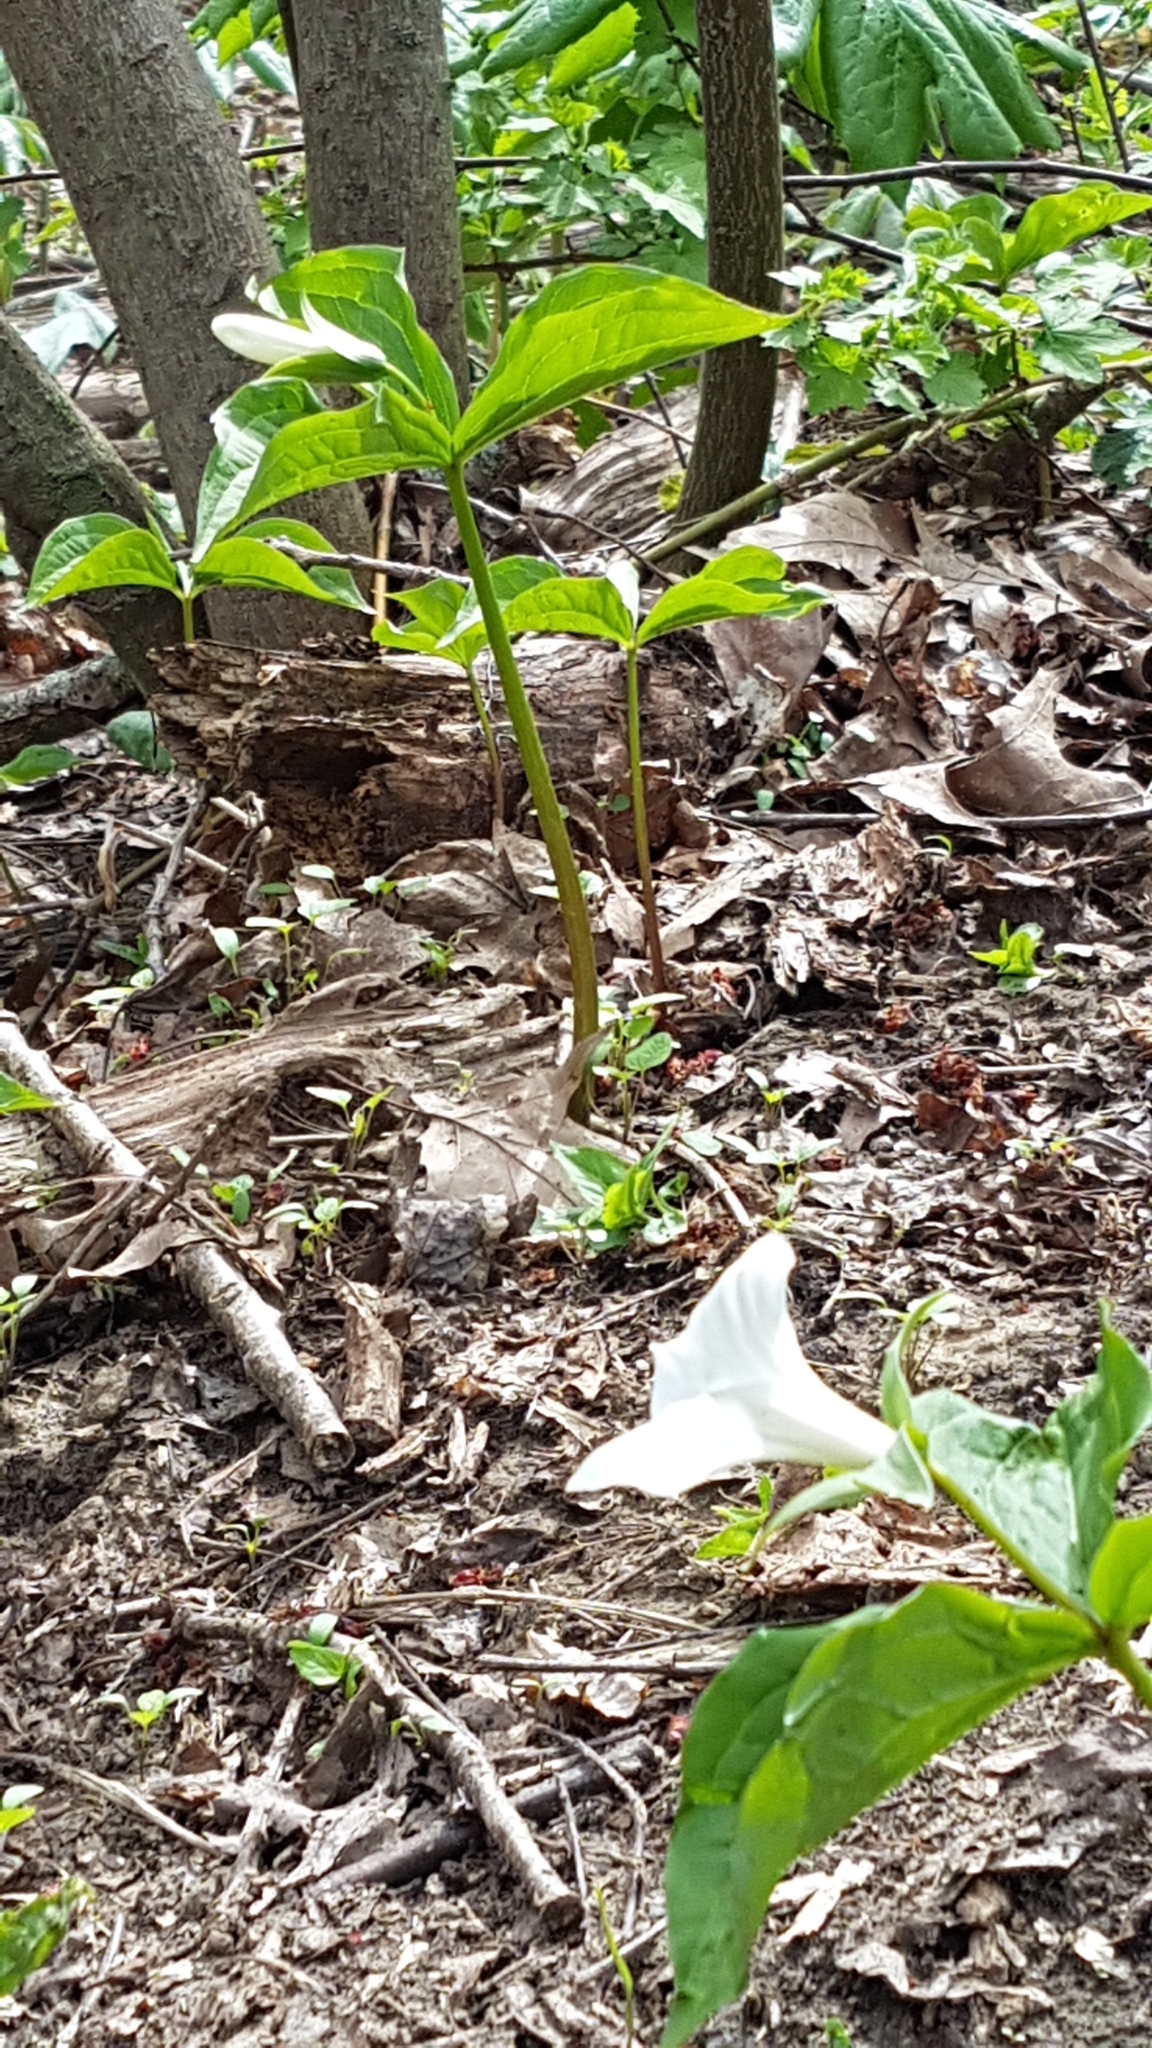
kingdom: Plantae
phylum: Tracheophyta
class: Liliopsida
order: Liliales
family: Melanthiaceae
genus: Trillium
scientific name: Trillium grandiflorum
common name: Great white trillium
